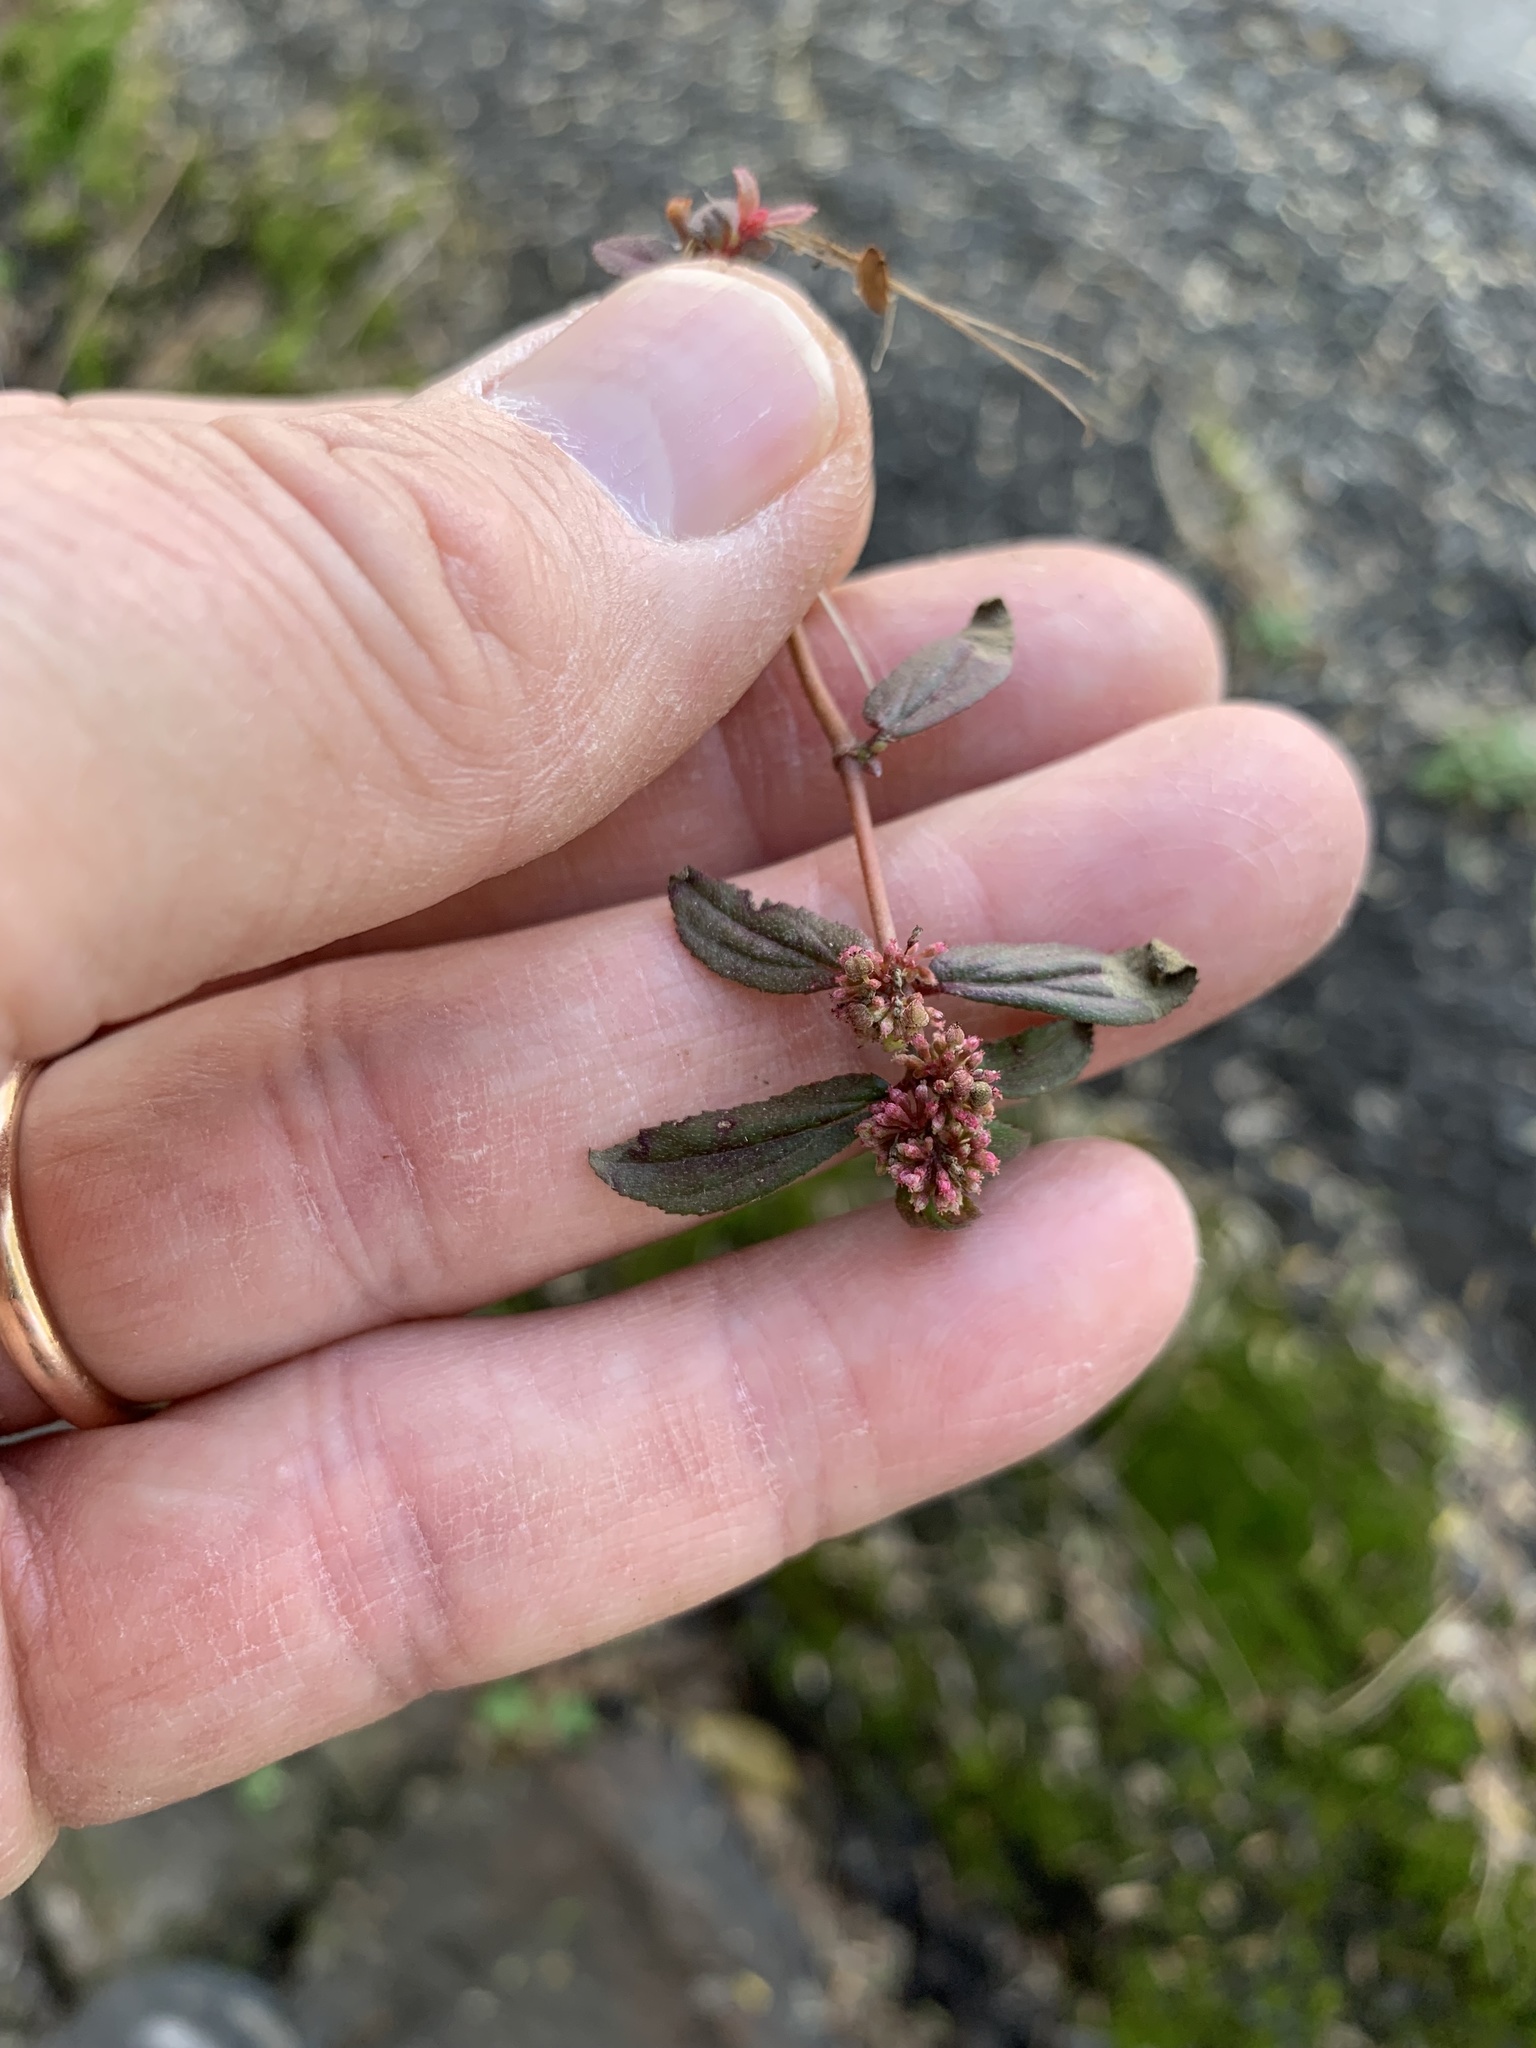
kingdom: Plantae
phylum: Tracheophyta
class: Magnoliopsida
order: Malpighiales
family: Euphorbiaceae
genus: Euphorbia
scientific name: Euphorbia hirta
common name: Pillpod sandmat
